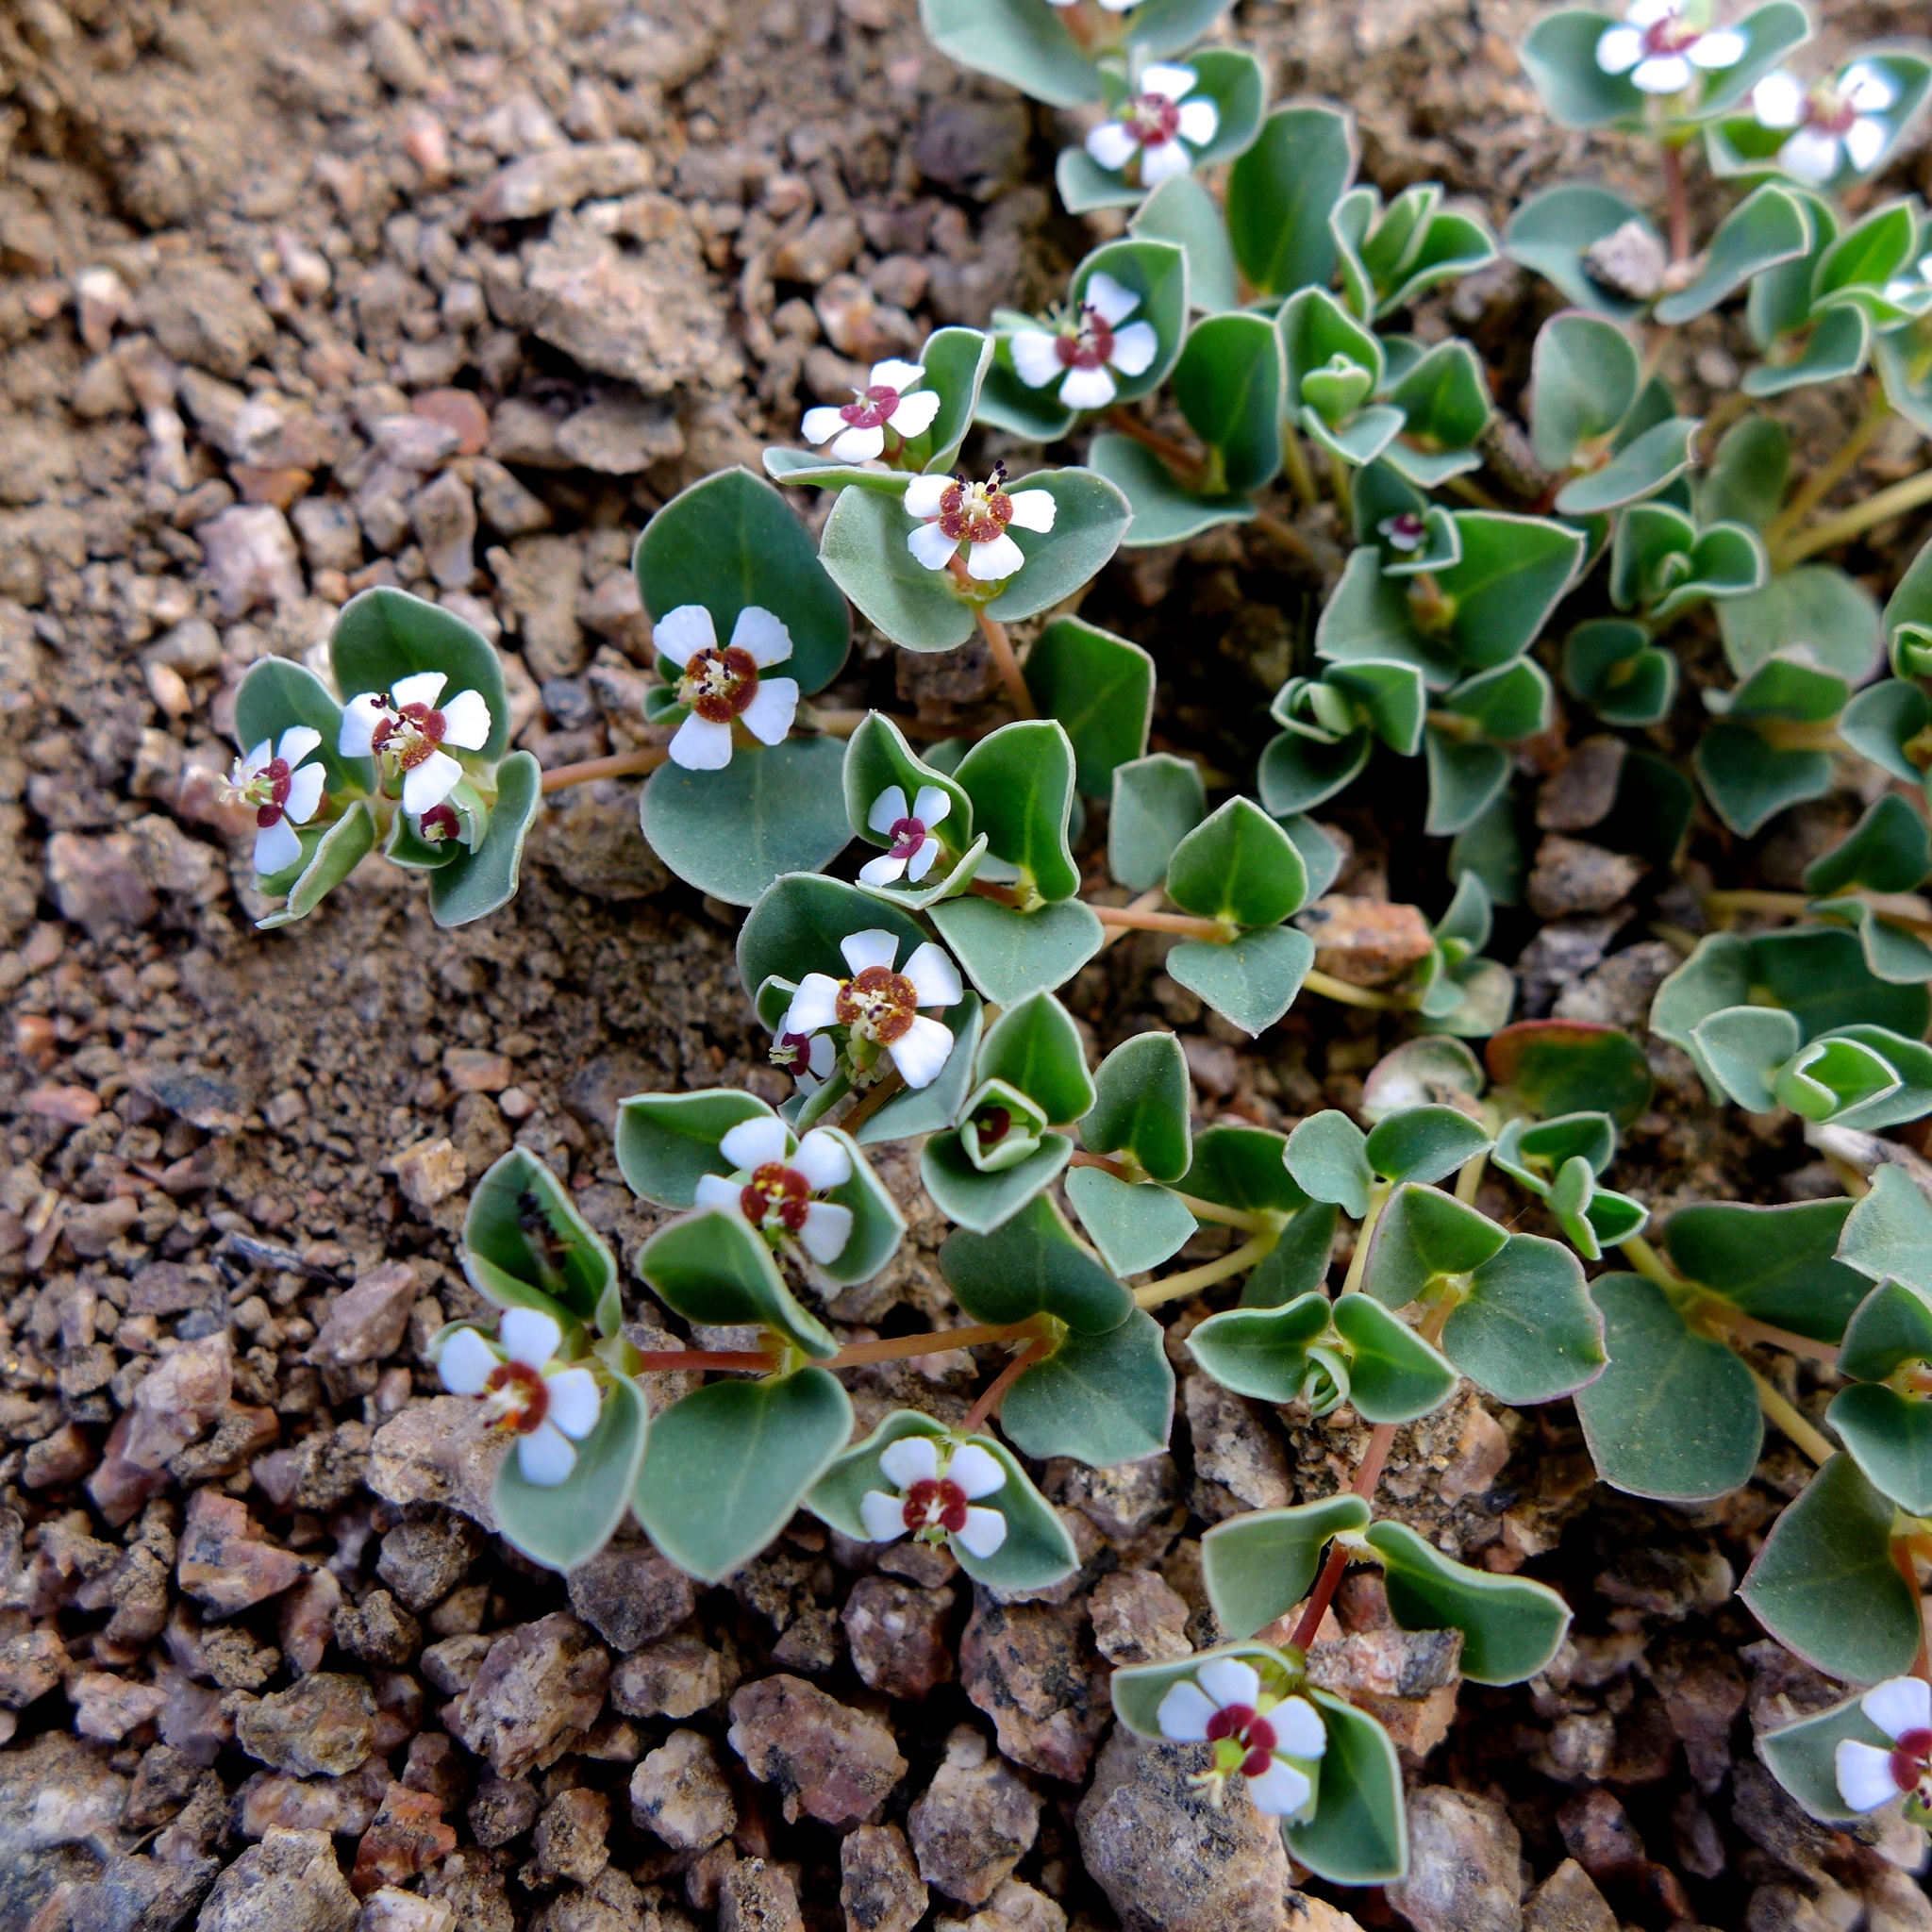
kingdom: Plantae
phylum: Tracheophyta
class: Magnoliopsida
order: Malpighiales
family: Euphorbiaceae
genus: Euphorbia
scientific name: Euphorbia albomarginata
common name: Whitemargin sandmat
